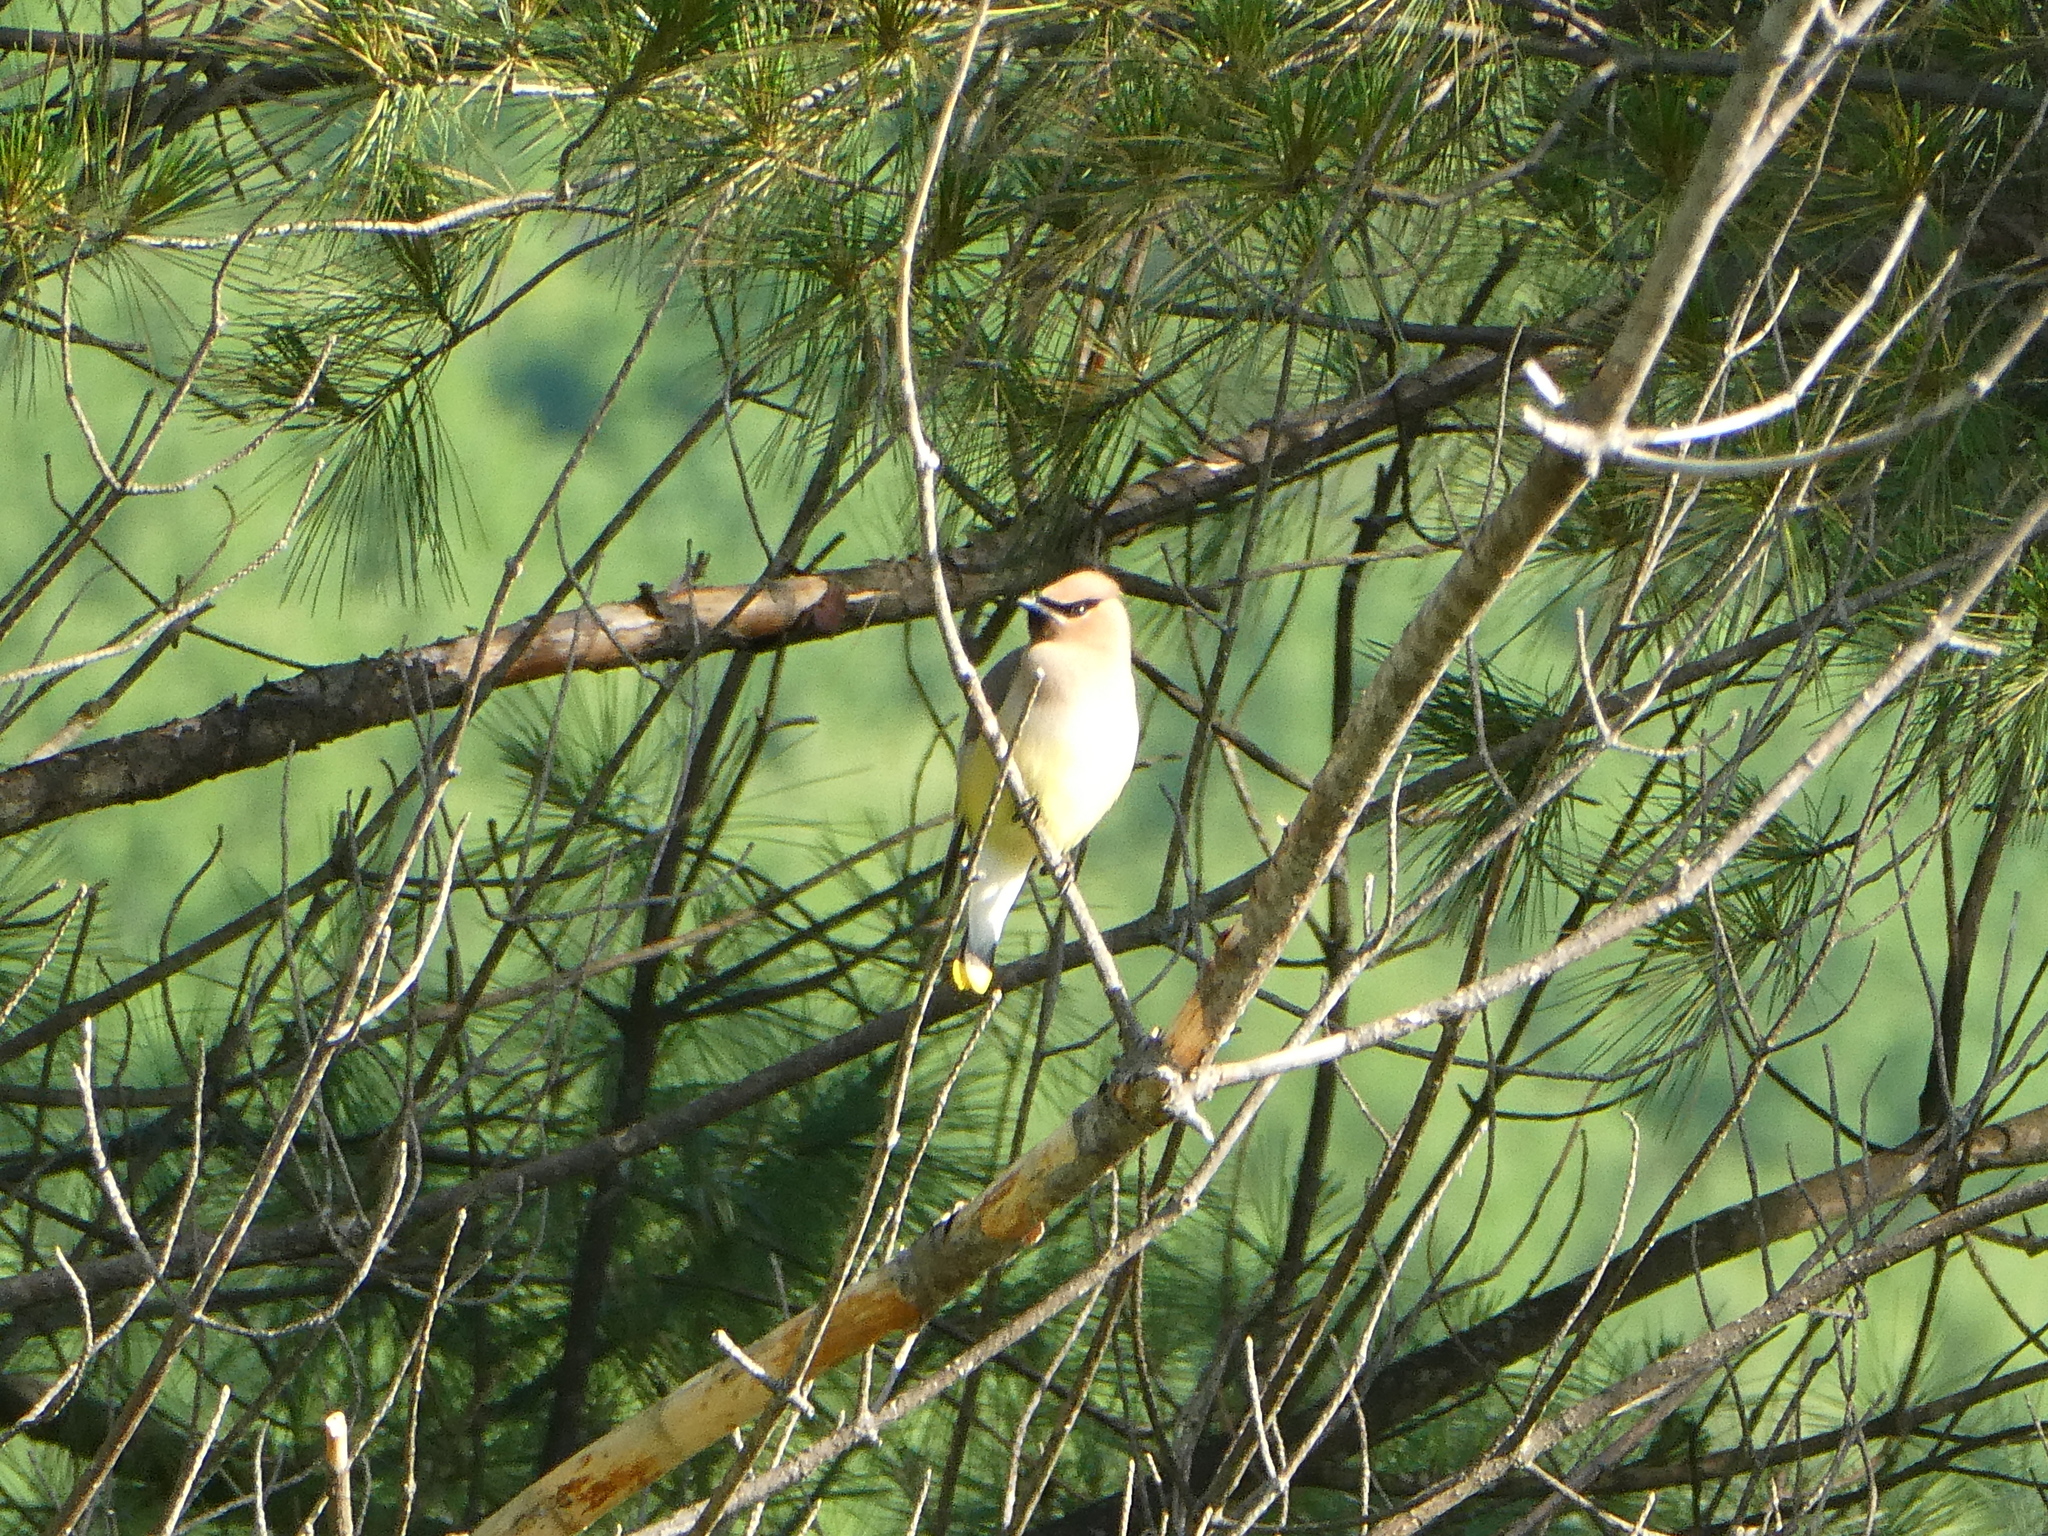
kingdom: Animalia
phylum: Chordata
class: Aves
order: Passeriformes
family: Bombycillidae
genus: Bombycilla
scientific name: Bombycilla cedrorum
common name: Cedar waxwing
